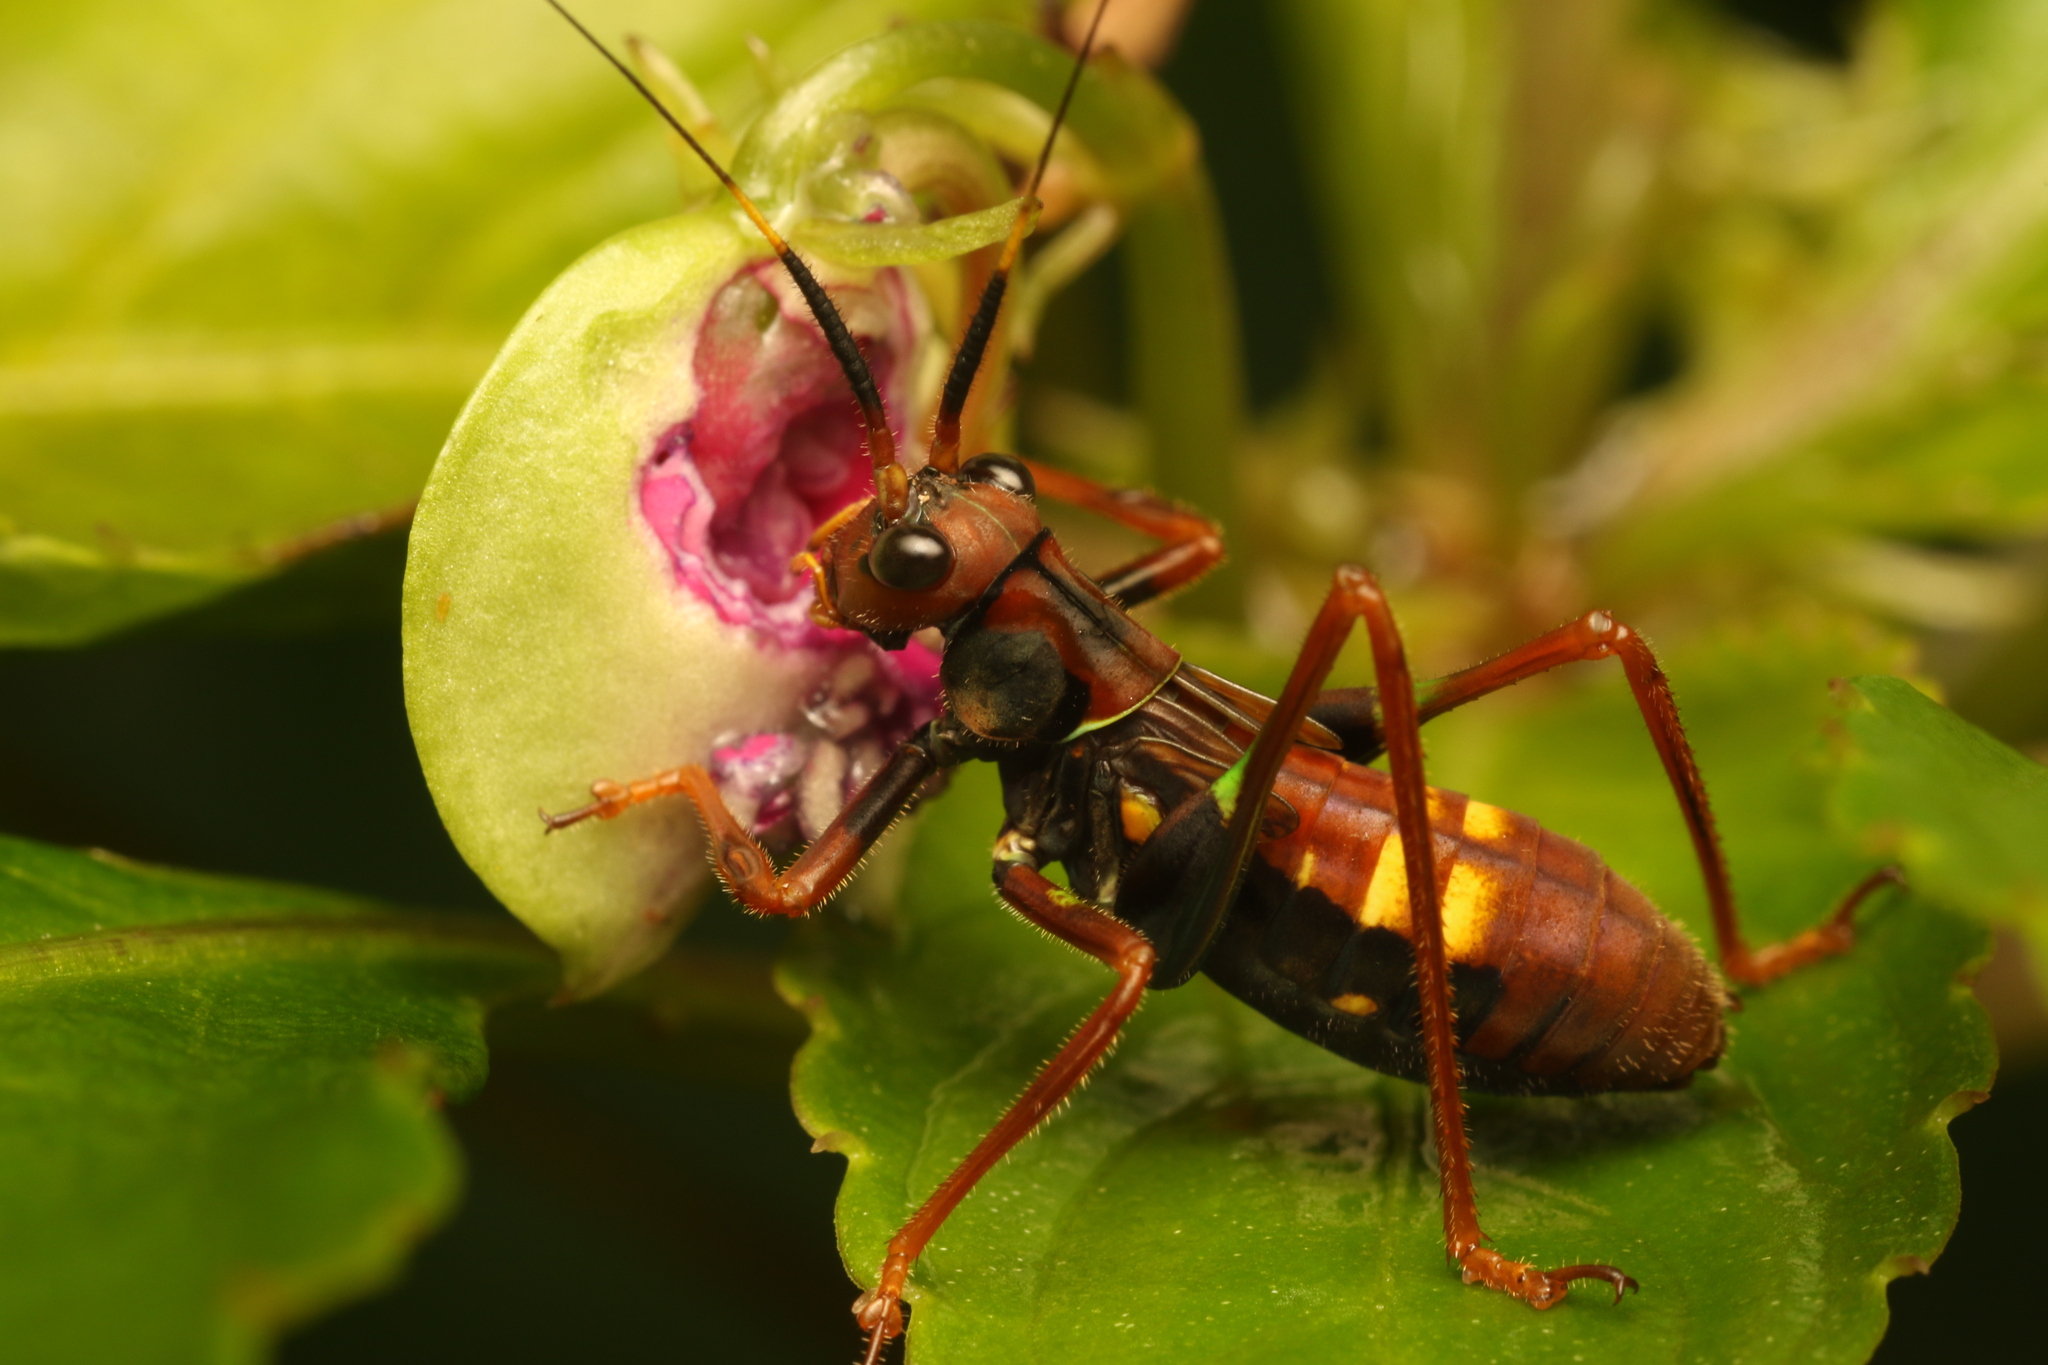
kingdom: Animalia
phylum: Arthropoda
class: Insecta
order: Orthoptera
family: Tettigoniidae
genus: Scaphura
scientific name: Scaphura nigra
